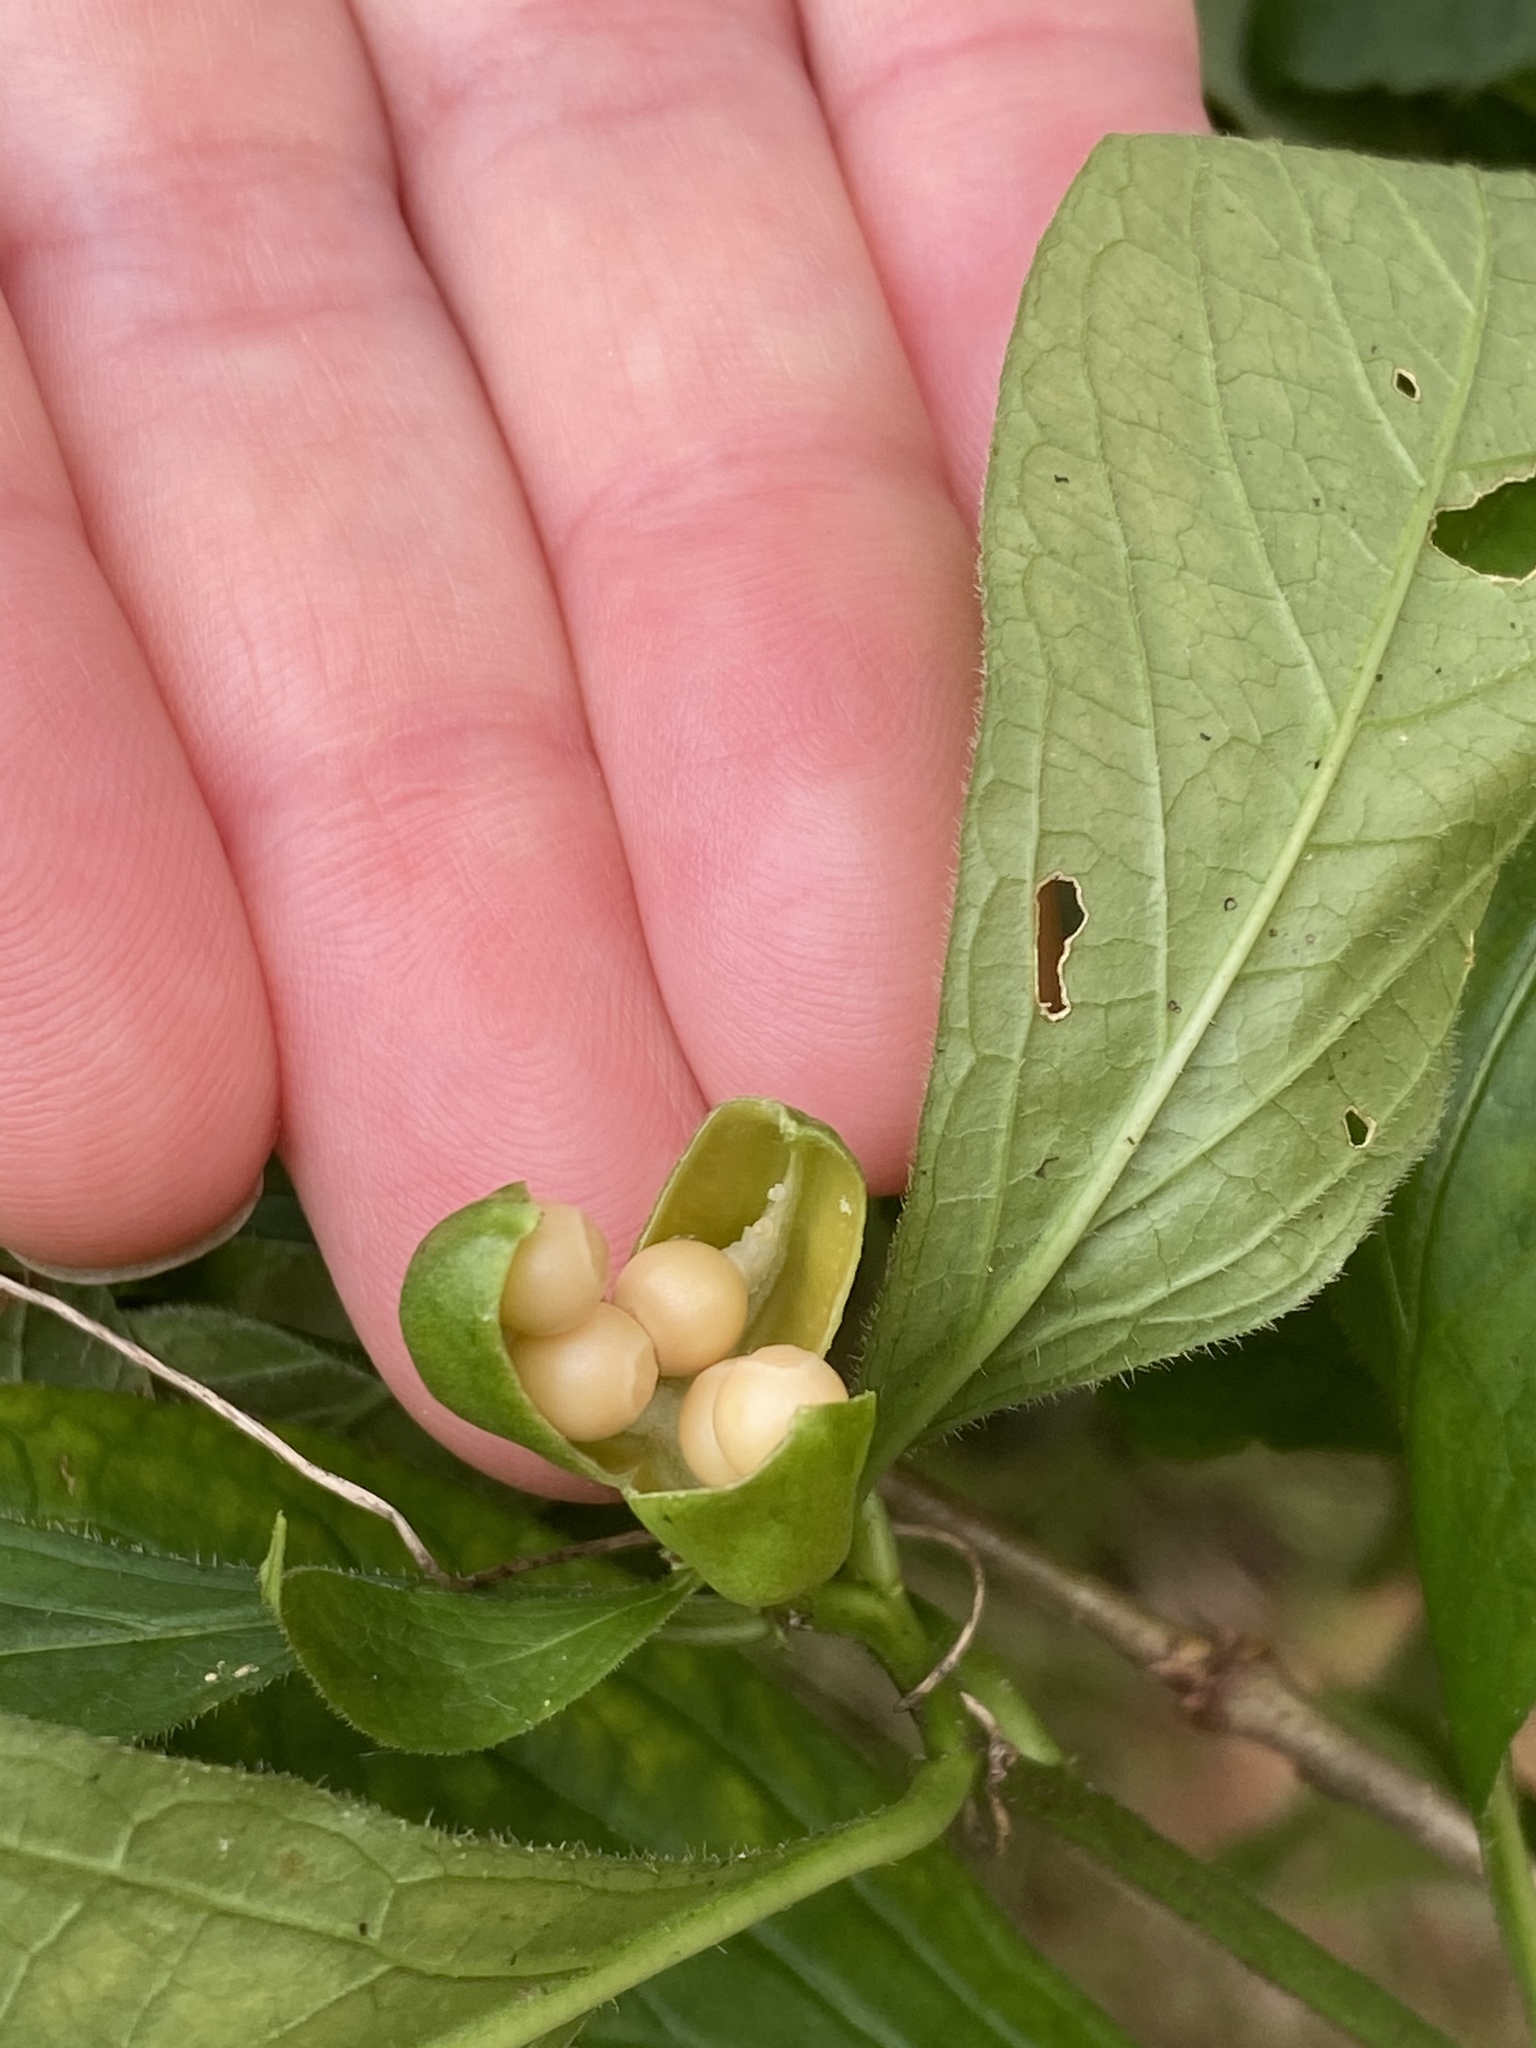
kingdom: Plantae
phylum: Tracheophyta
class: Magnoliopsida
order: Malpighiales
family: Violaceae
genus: Cubelium
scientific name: Cubelium concolor
